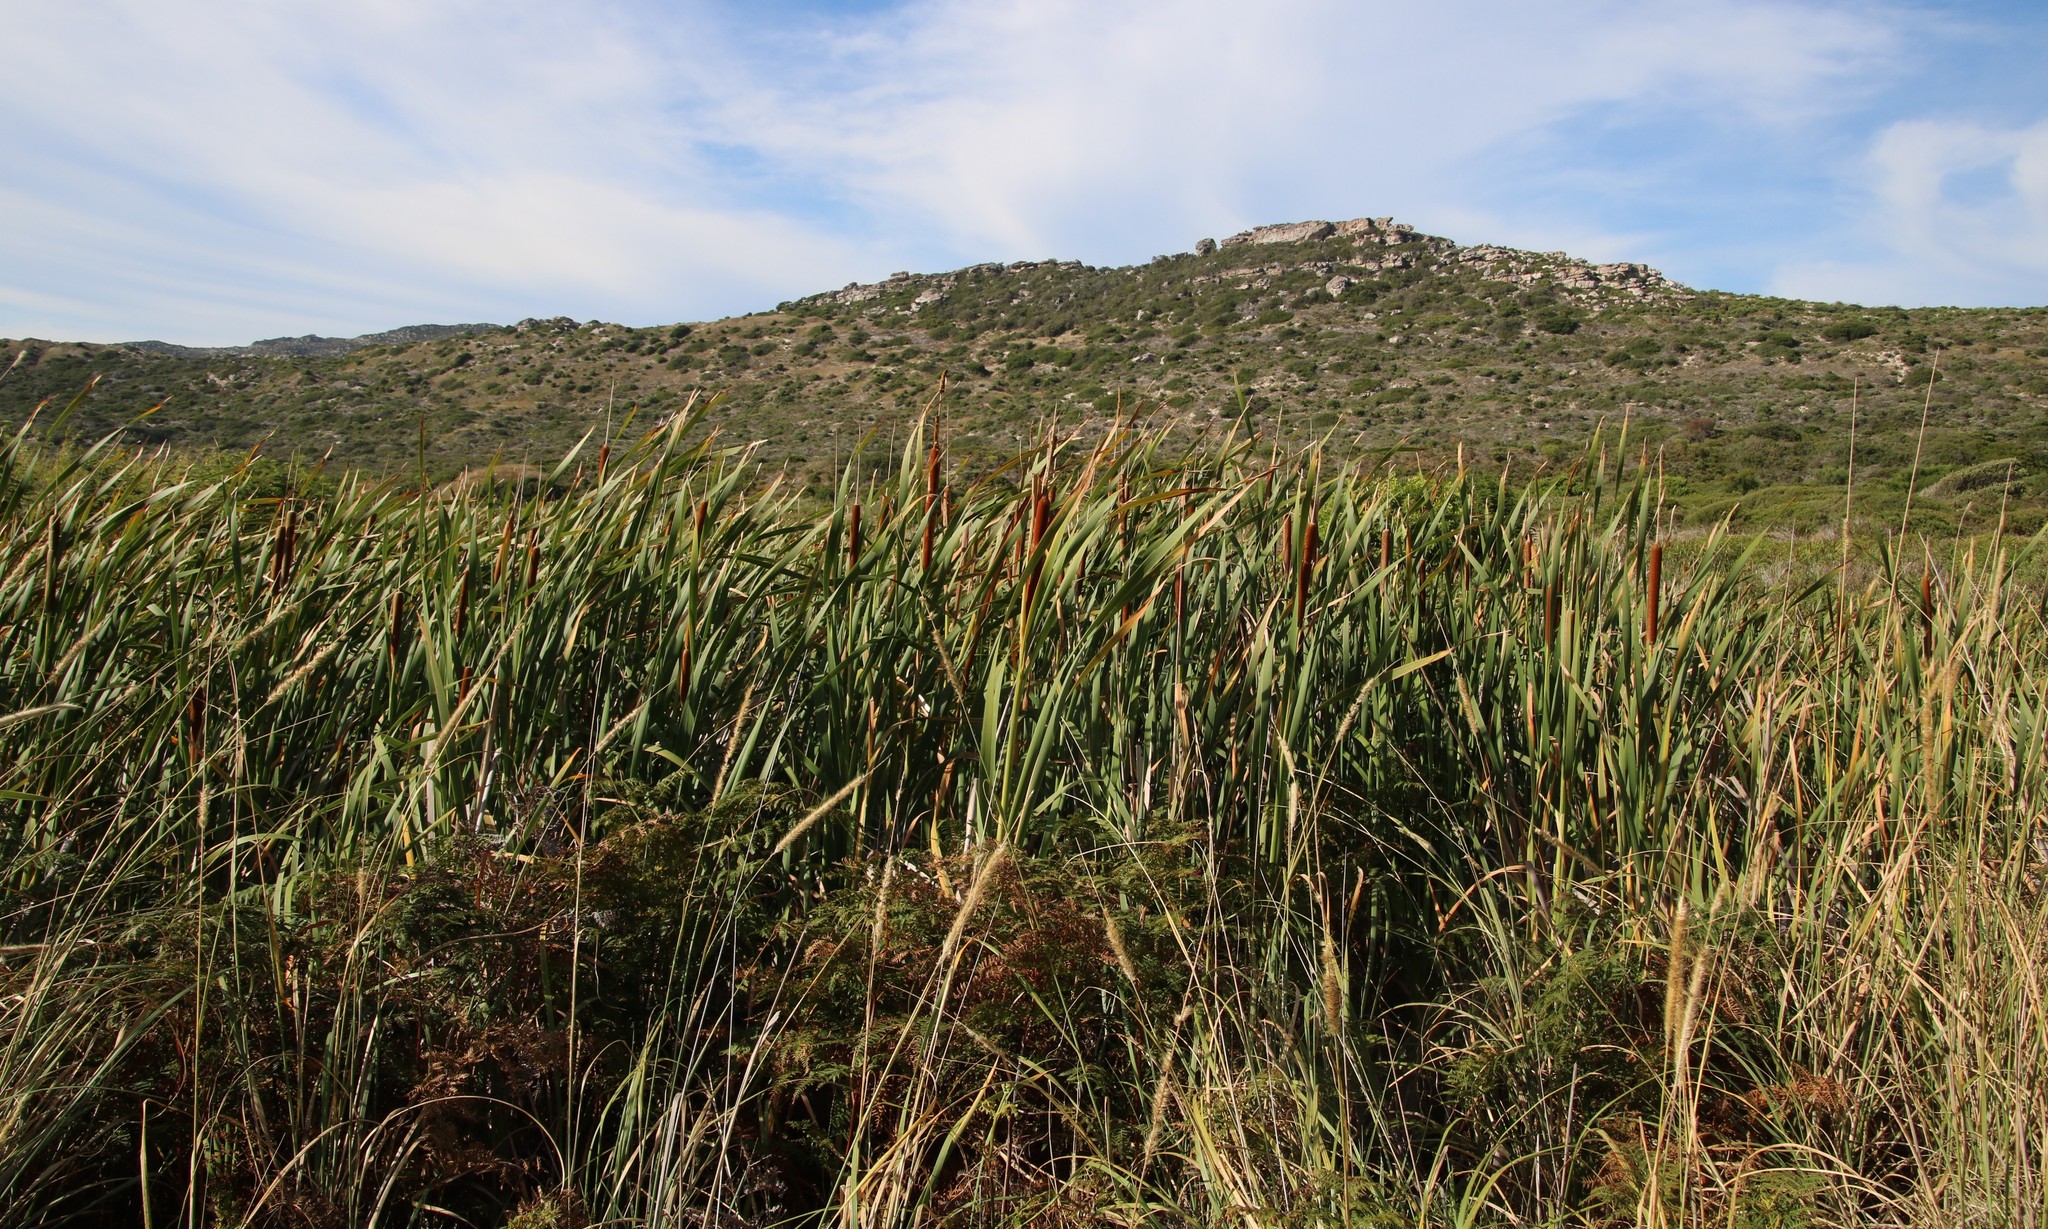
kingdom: Plantae
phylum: Tracheophyta
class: Liliopsida
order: Poales
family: Typhaceae
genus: Typha
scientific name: Typha capensis
